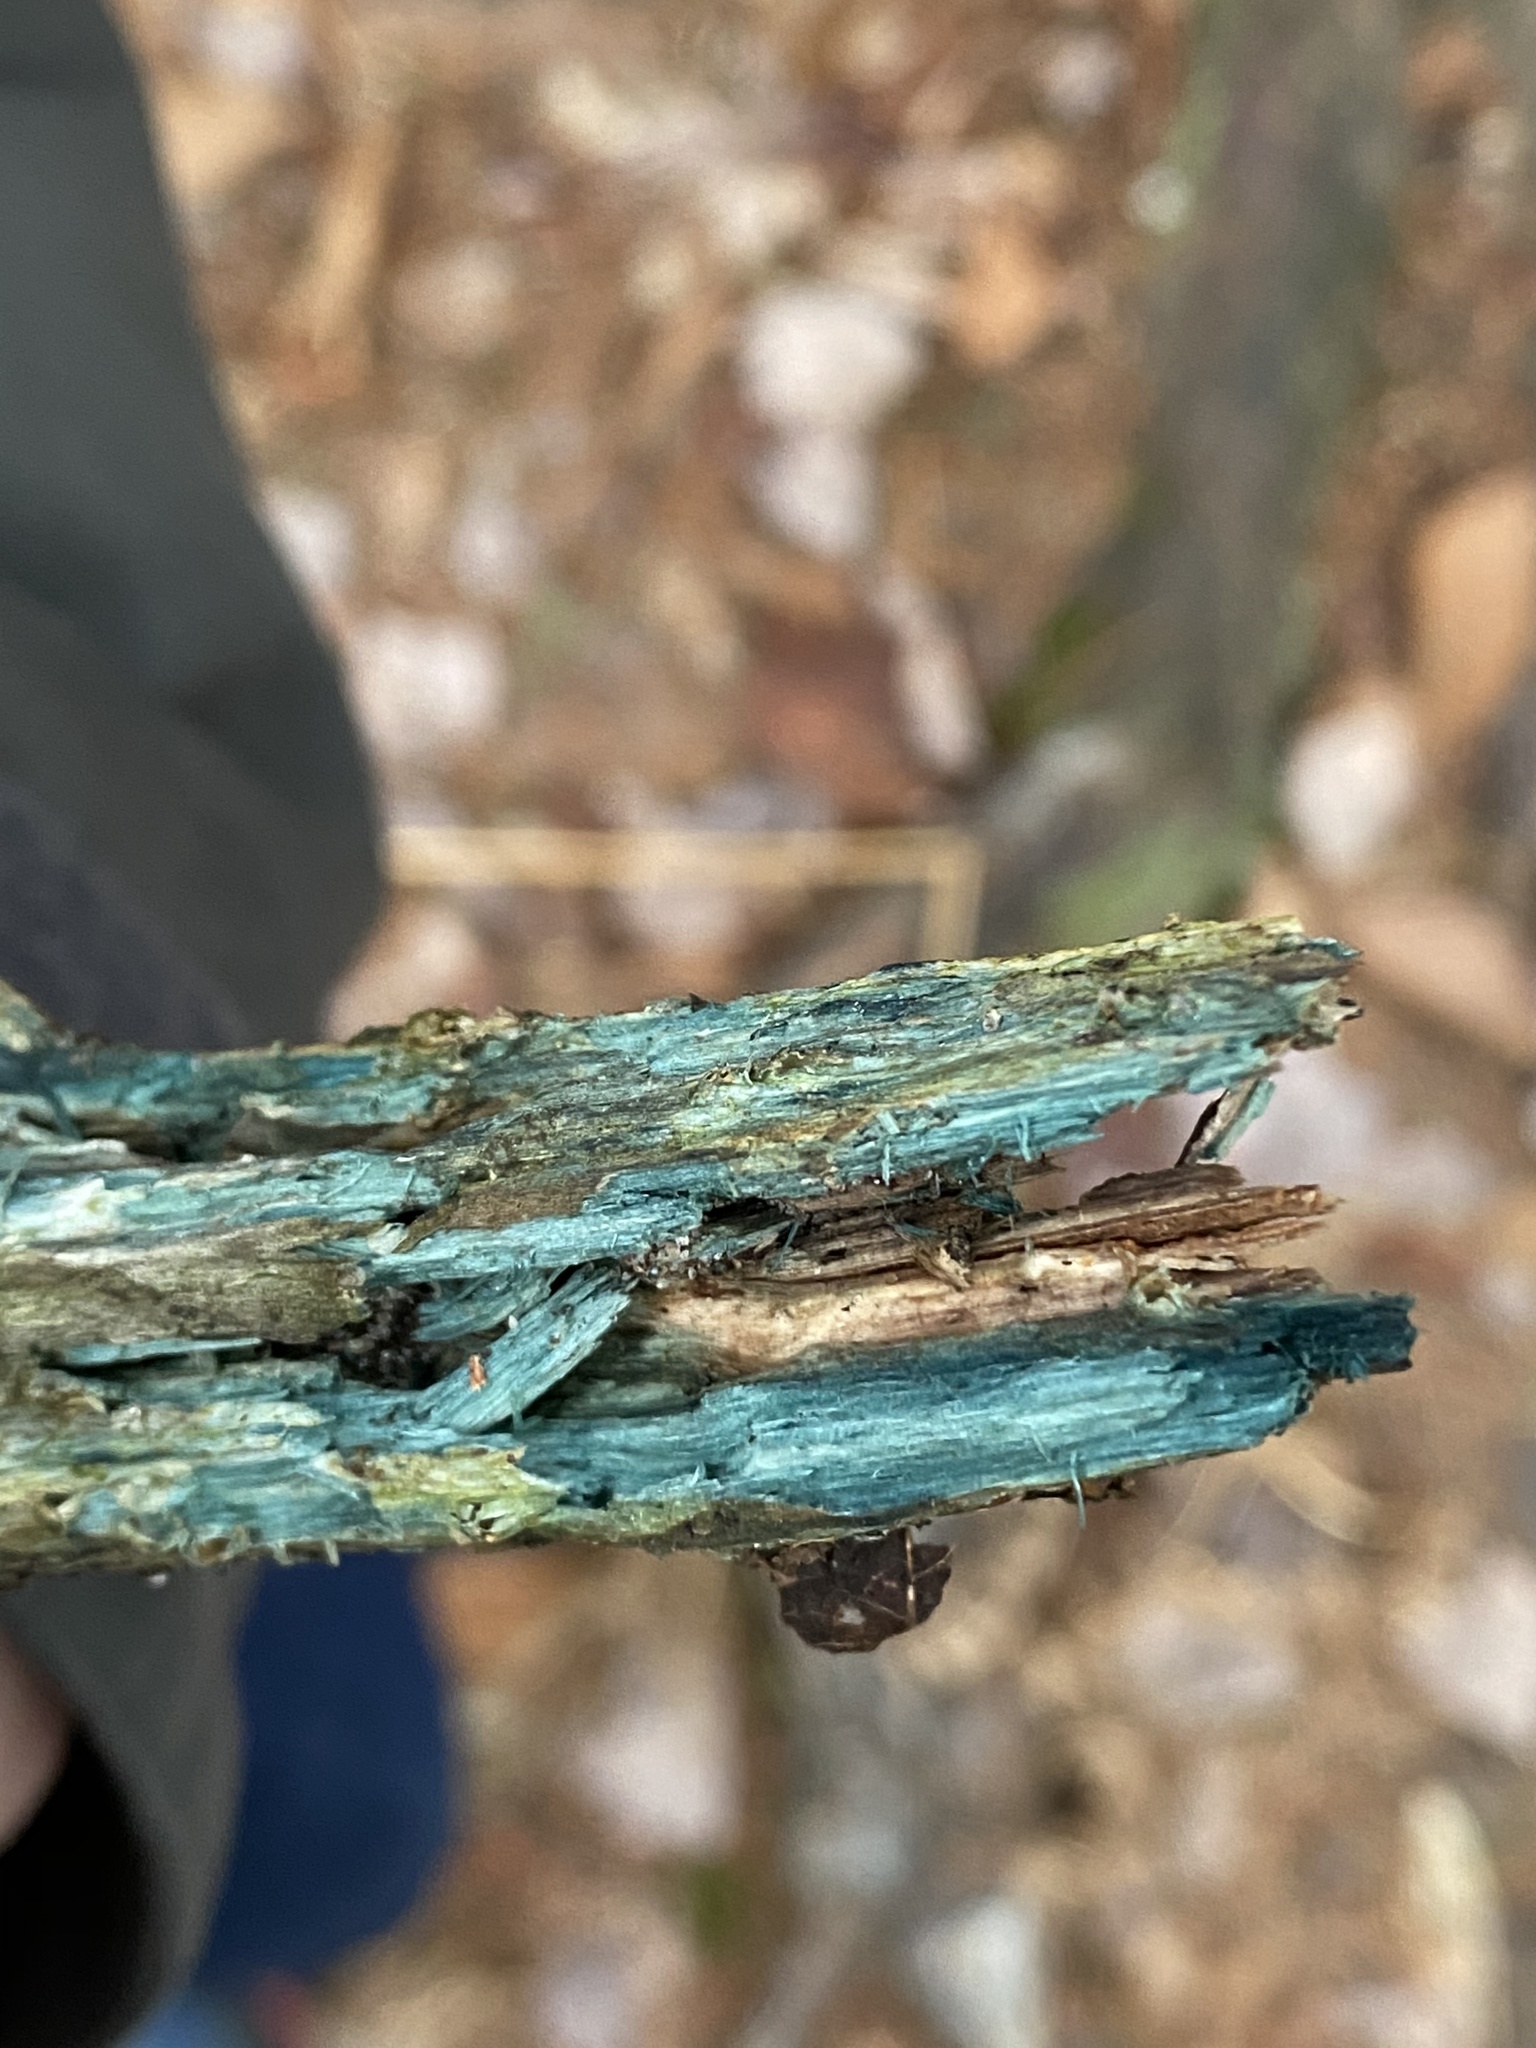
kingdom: Fungi
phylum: Ascomycota
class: Leotiomycetes
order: Helotiales
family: Chlorociboriaceae
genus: Chlorociboria
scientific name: Chlorociboria
